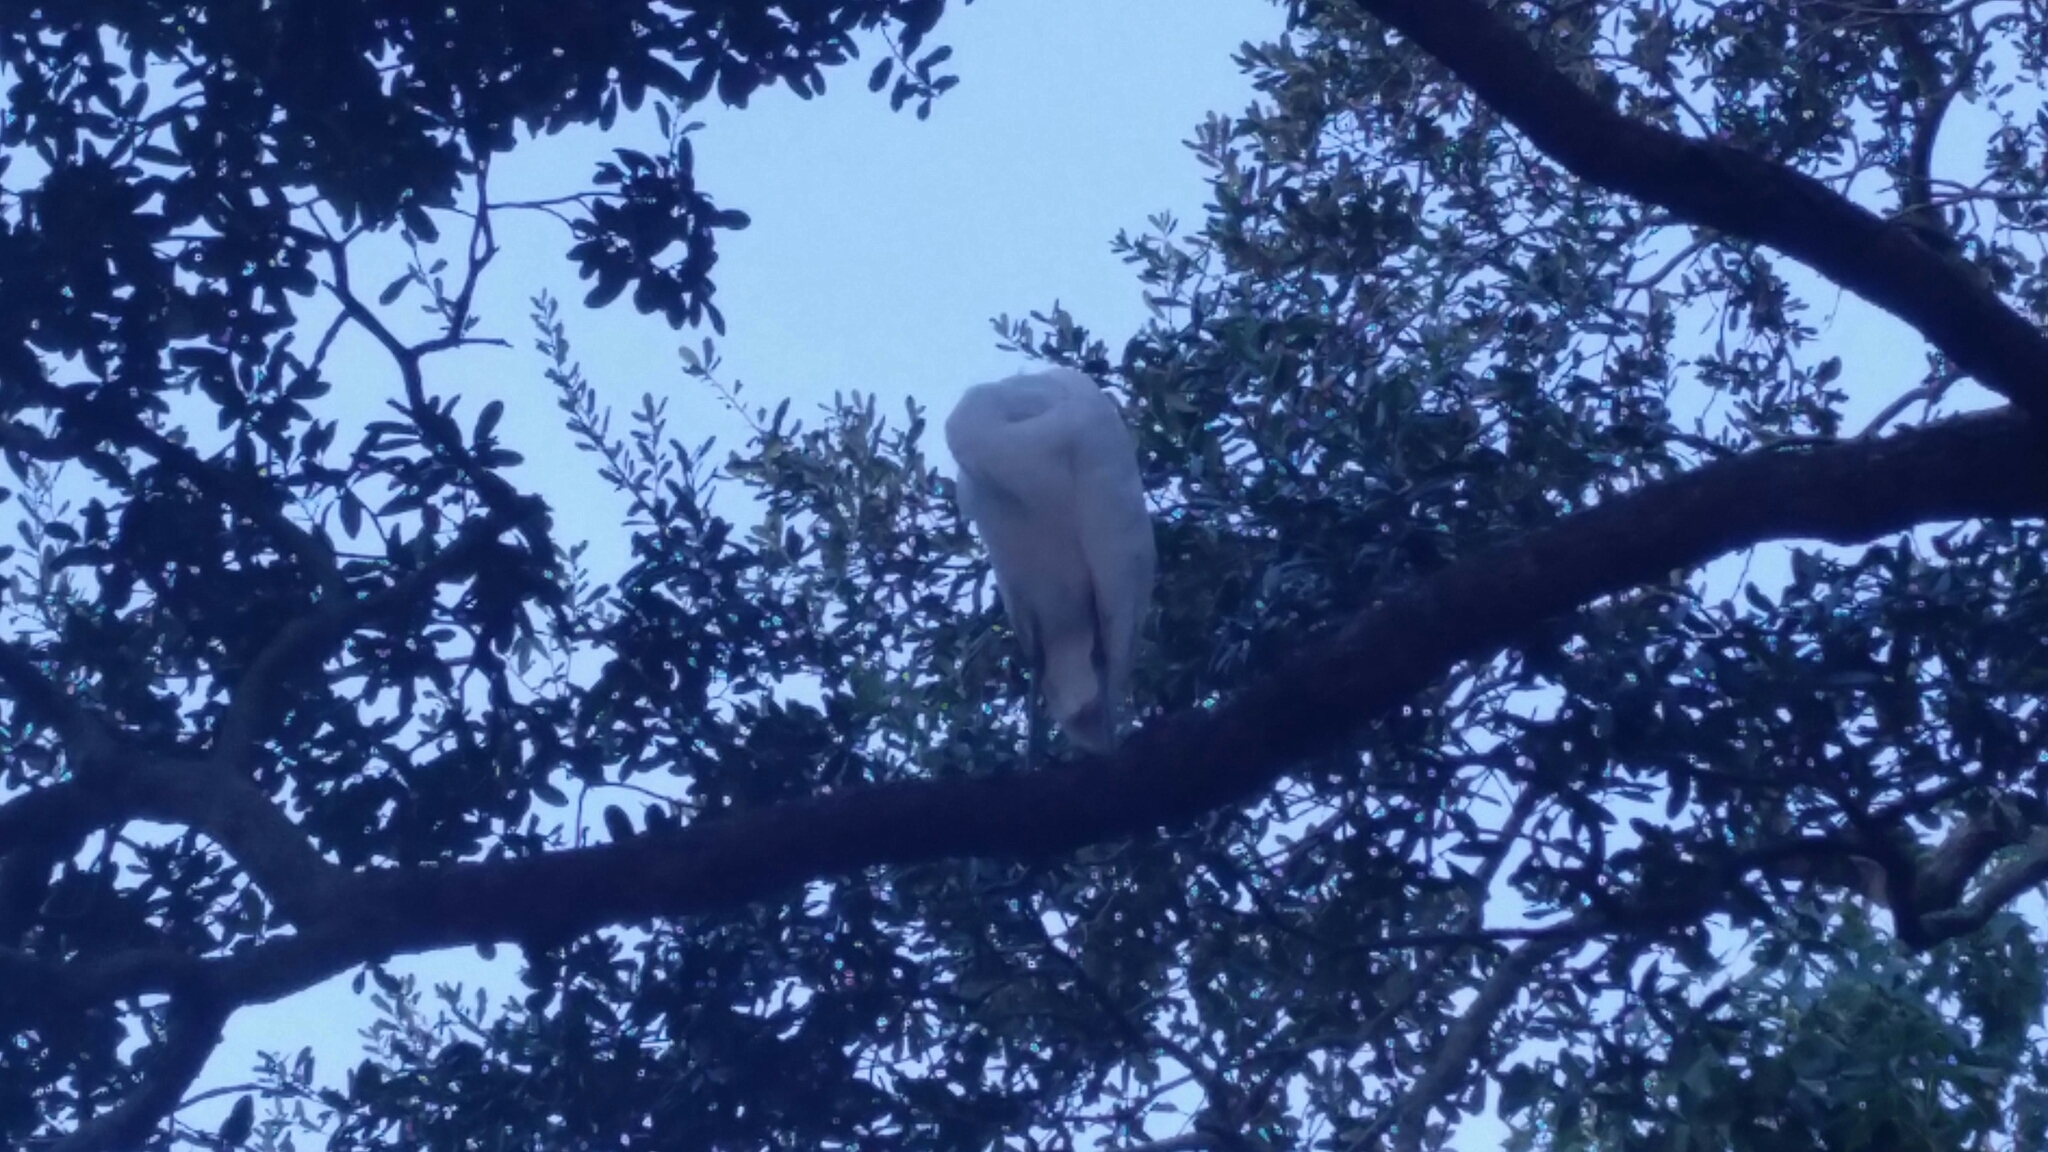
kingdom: Animalia
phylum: Chordata
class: Aves
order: Pelecaniformes
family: Ardeidae
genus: Ardea
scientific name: Ardea alba
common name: Great egret
